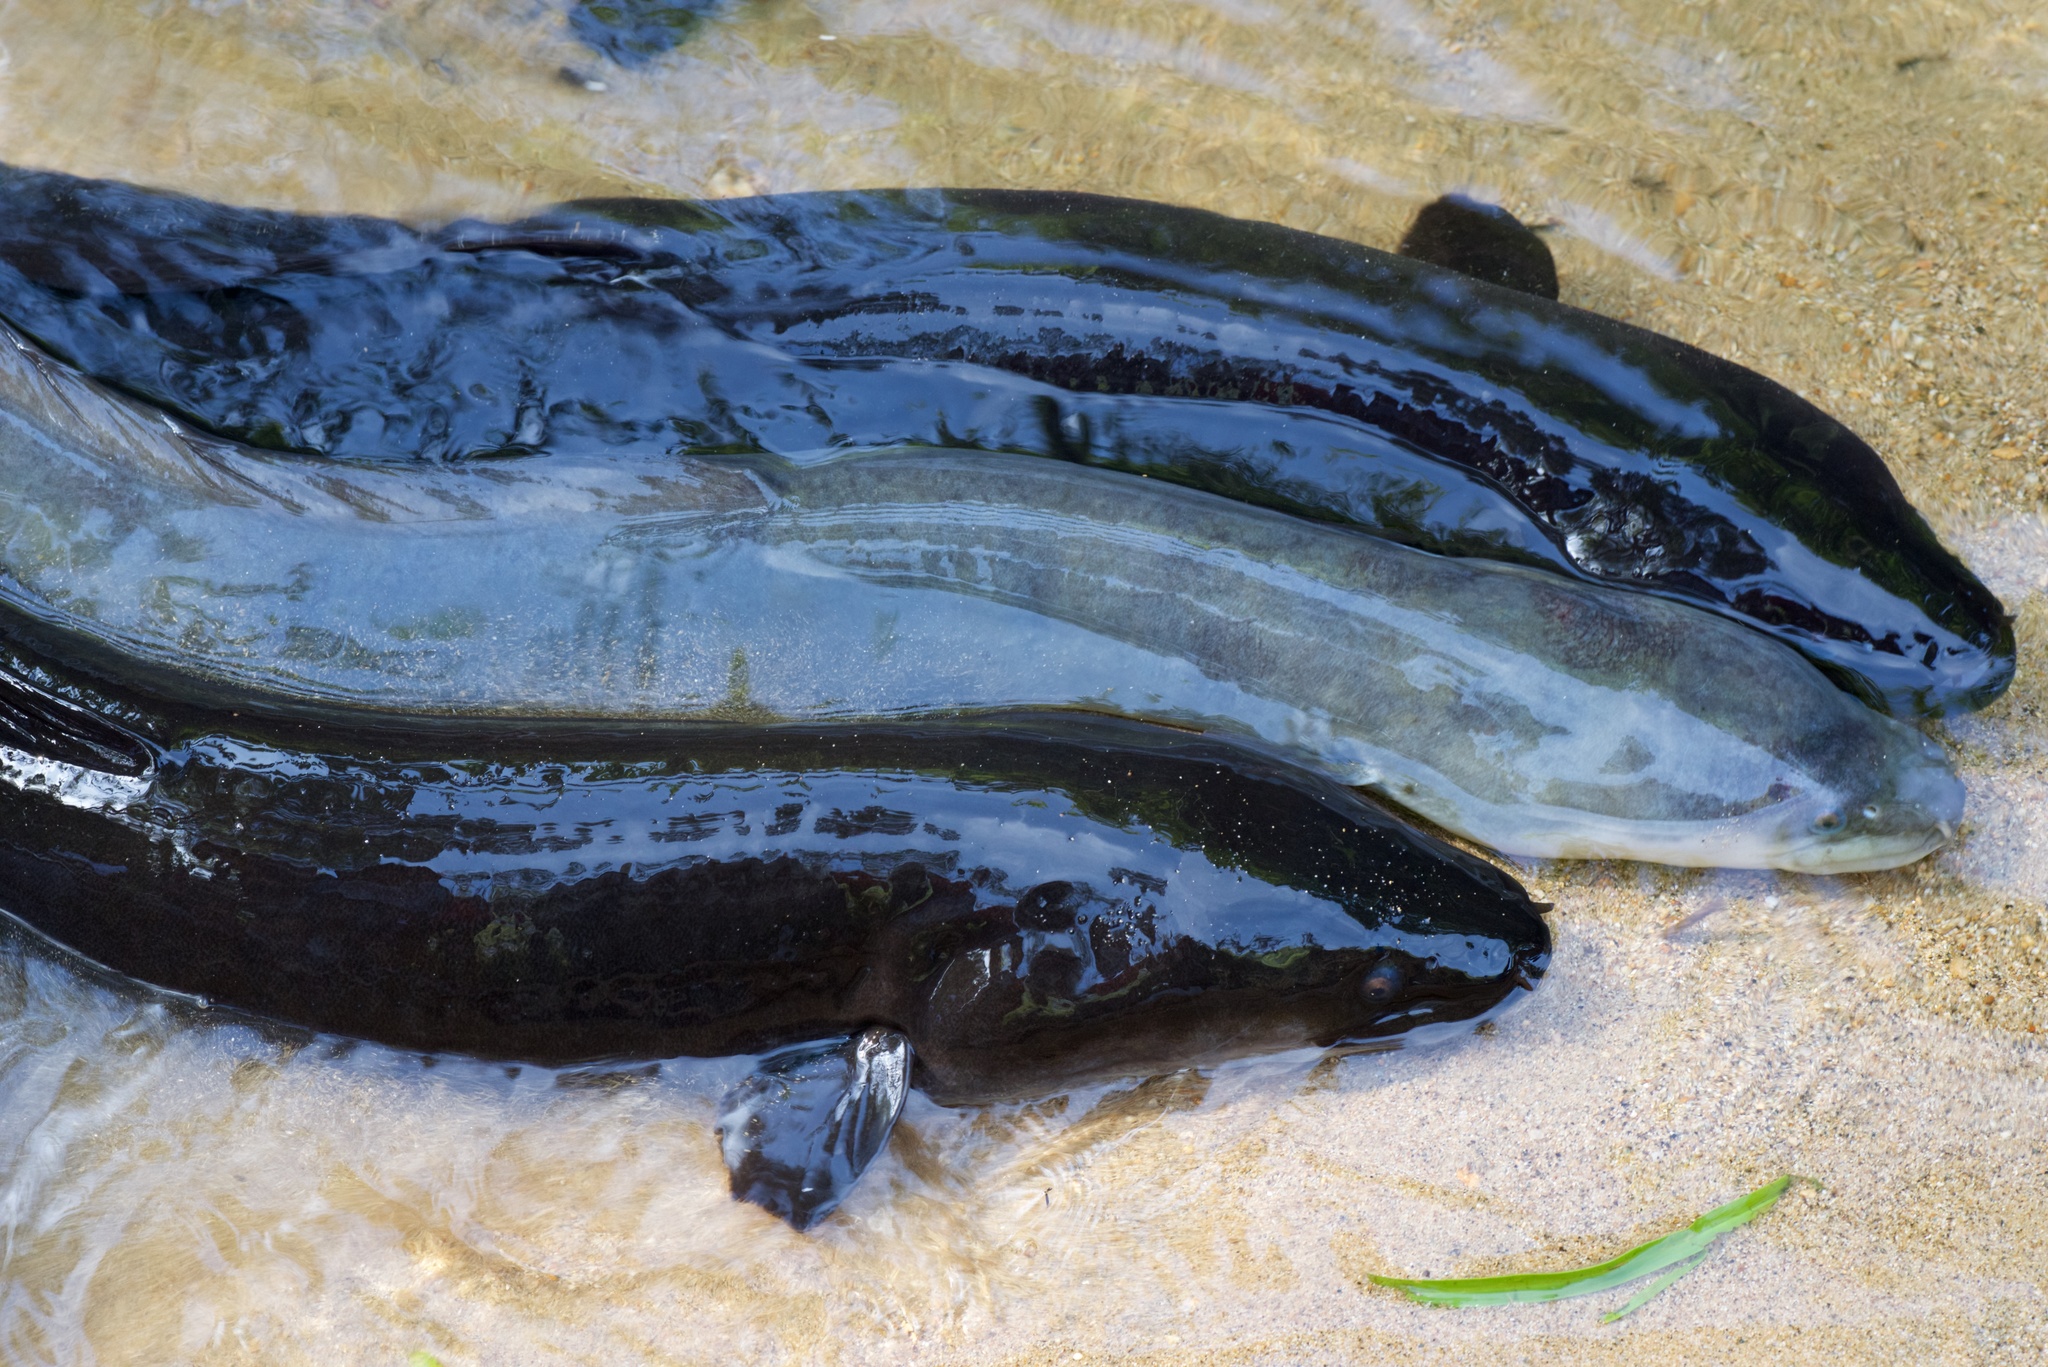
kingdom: Animalia
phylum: Chordata
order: Anguilliformes
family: Anguillidae
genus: Anguilla
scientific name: Anguilla dieffenbachii
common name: New zealand longfin eel
